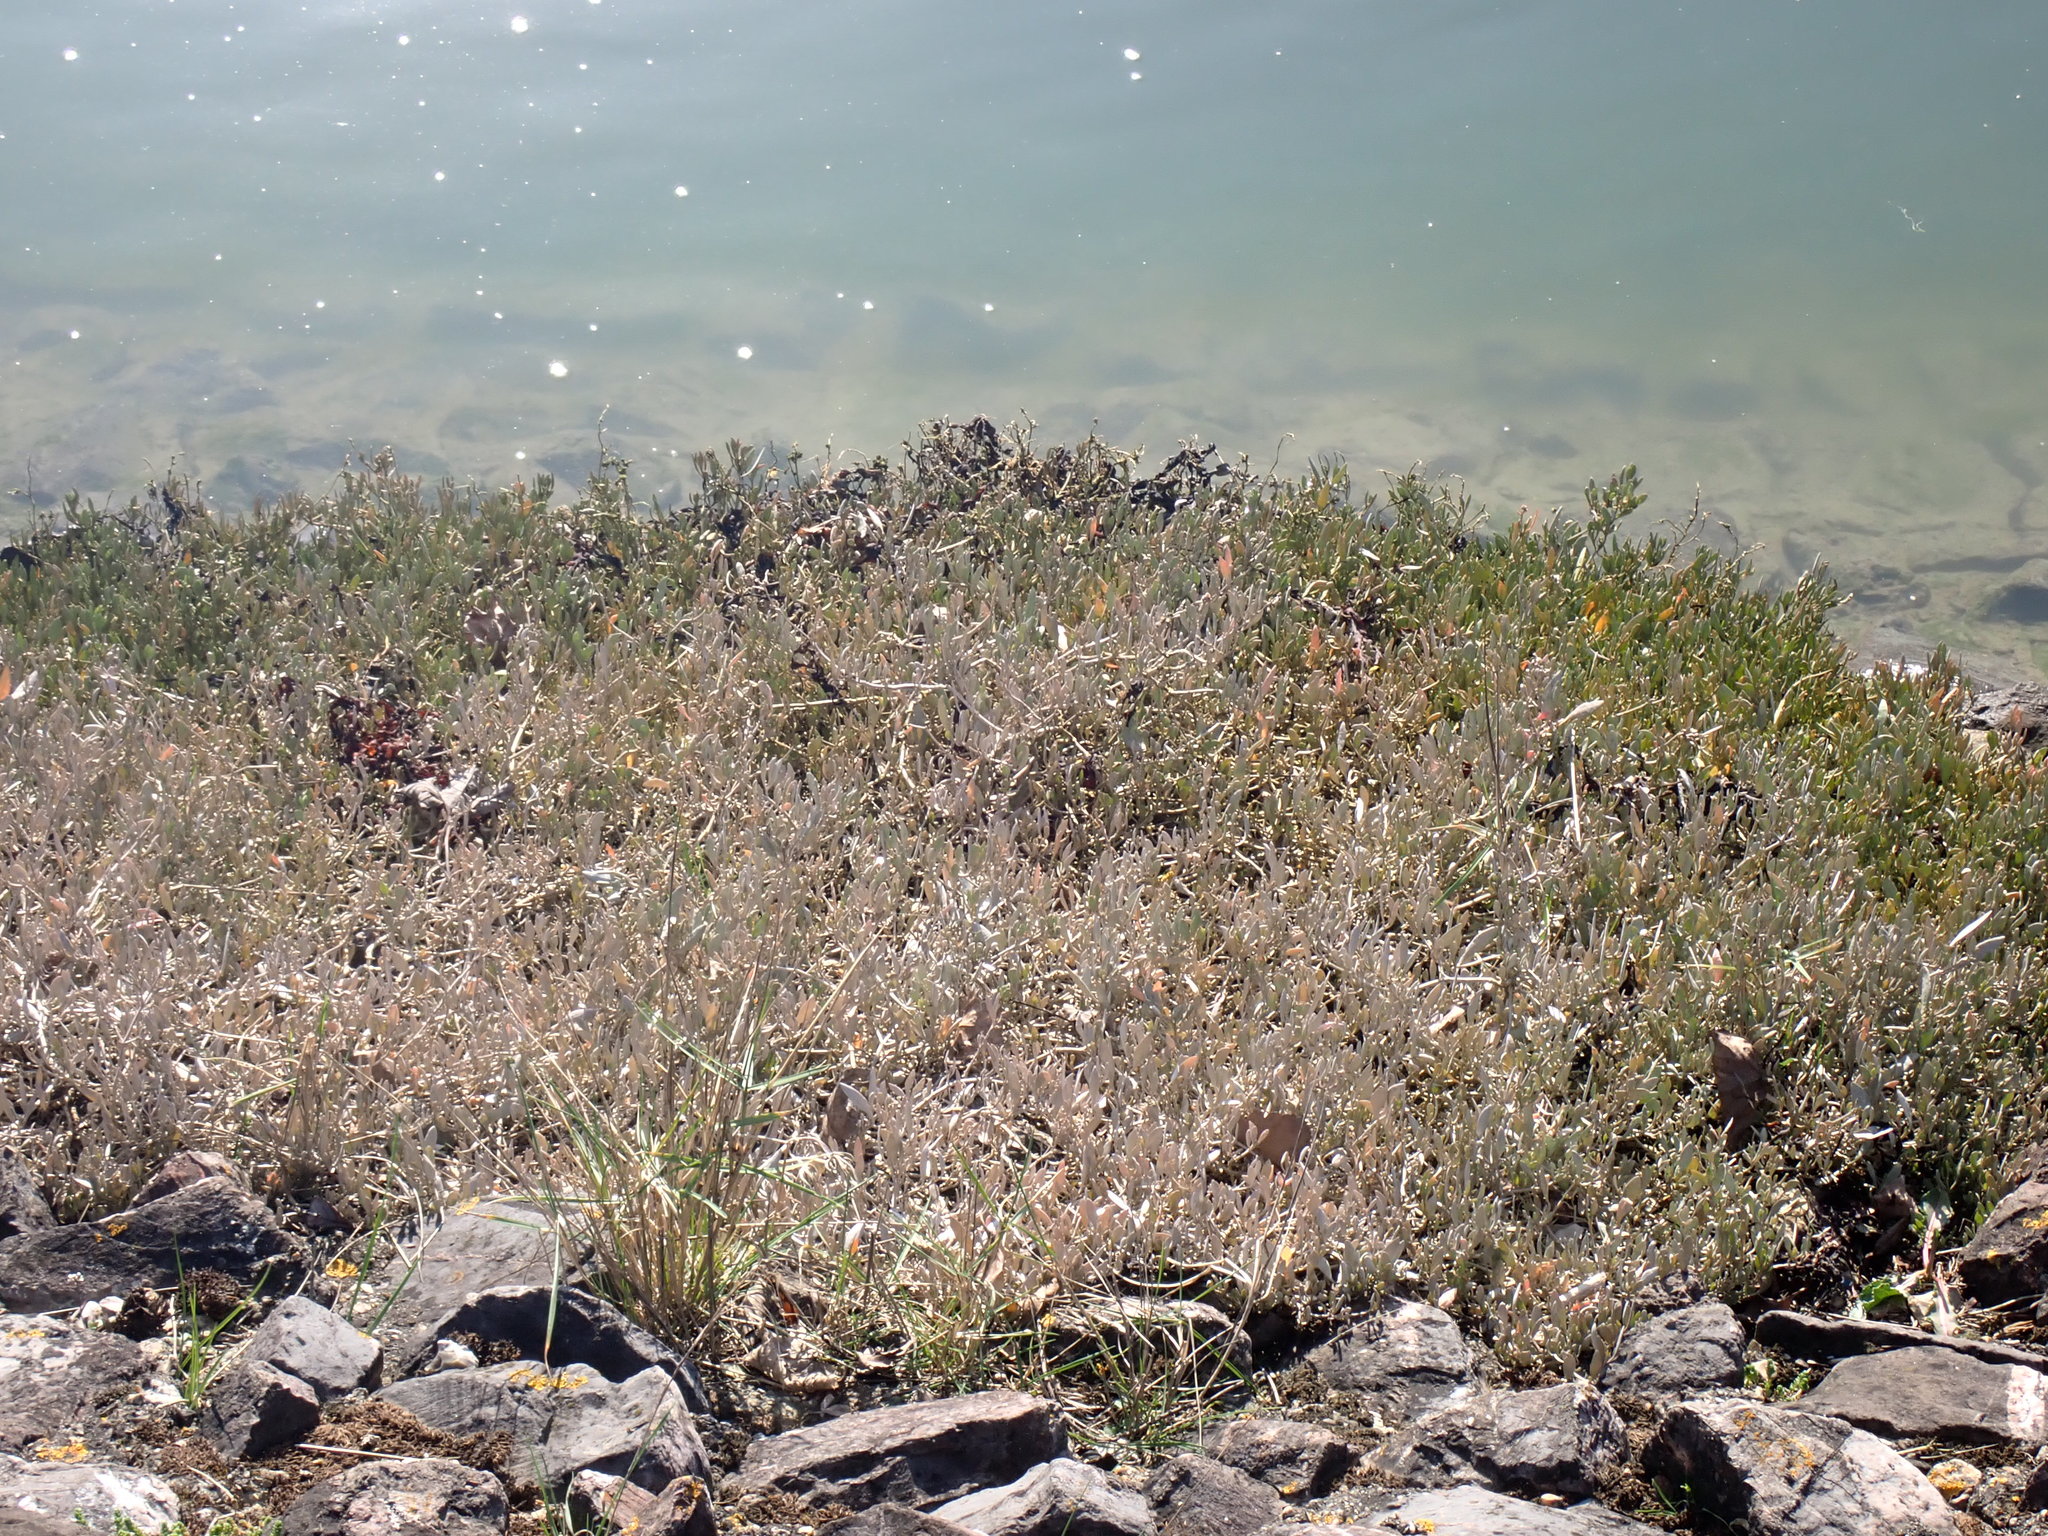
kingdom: Plantae
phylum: Tracheophyta
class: Magnoliopsida
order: Caryophyllales
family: Amaranthaceae
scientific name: Amaranthaceae
